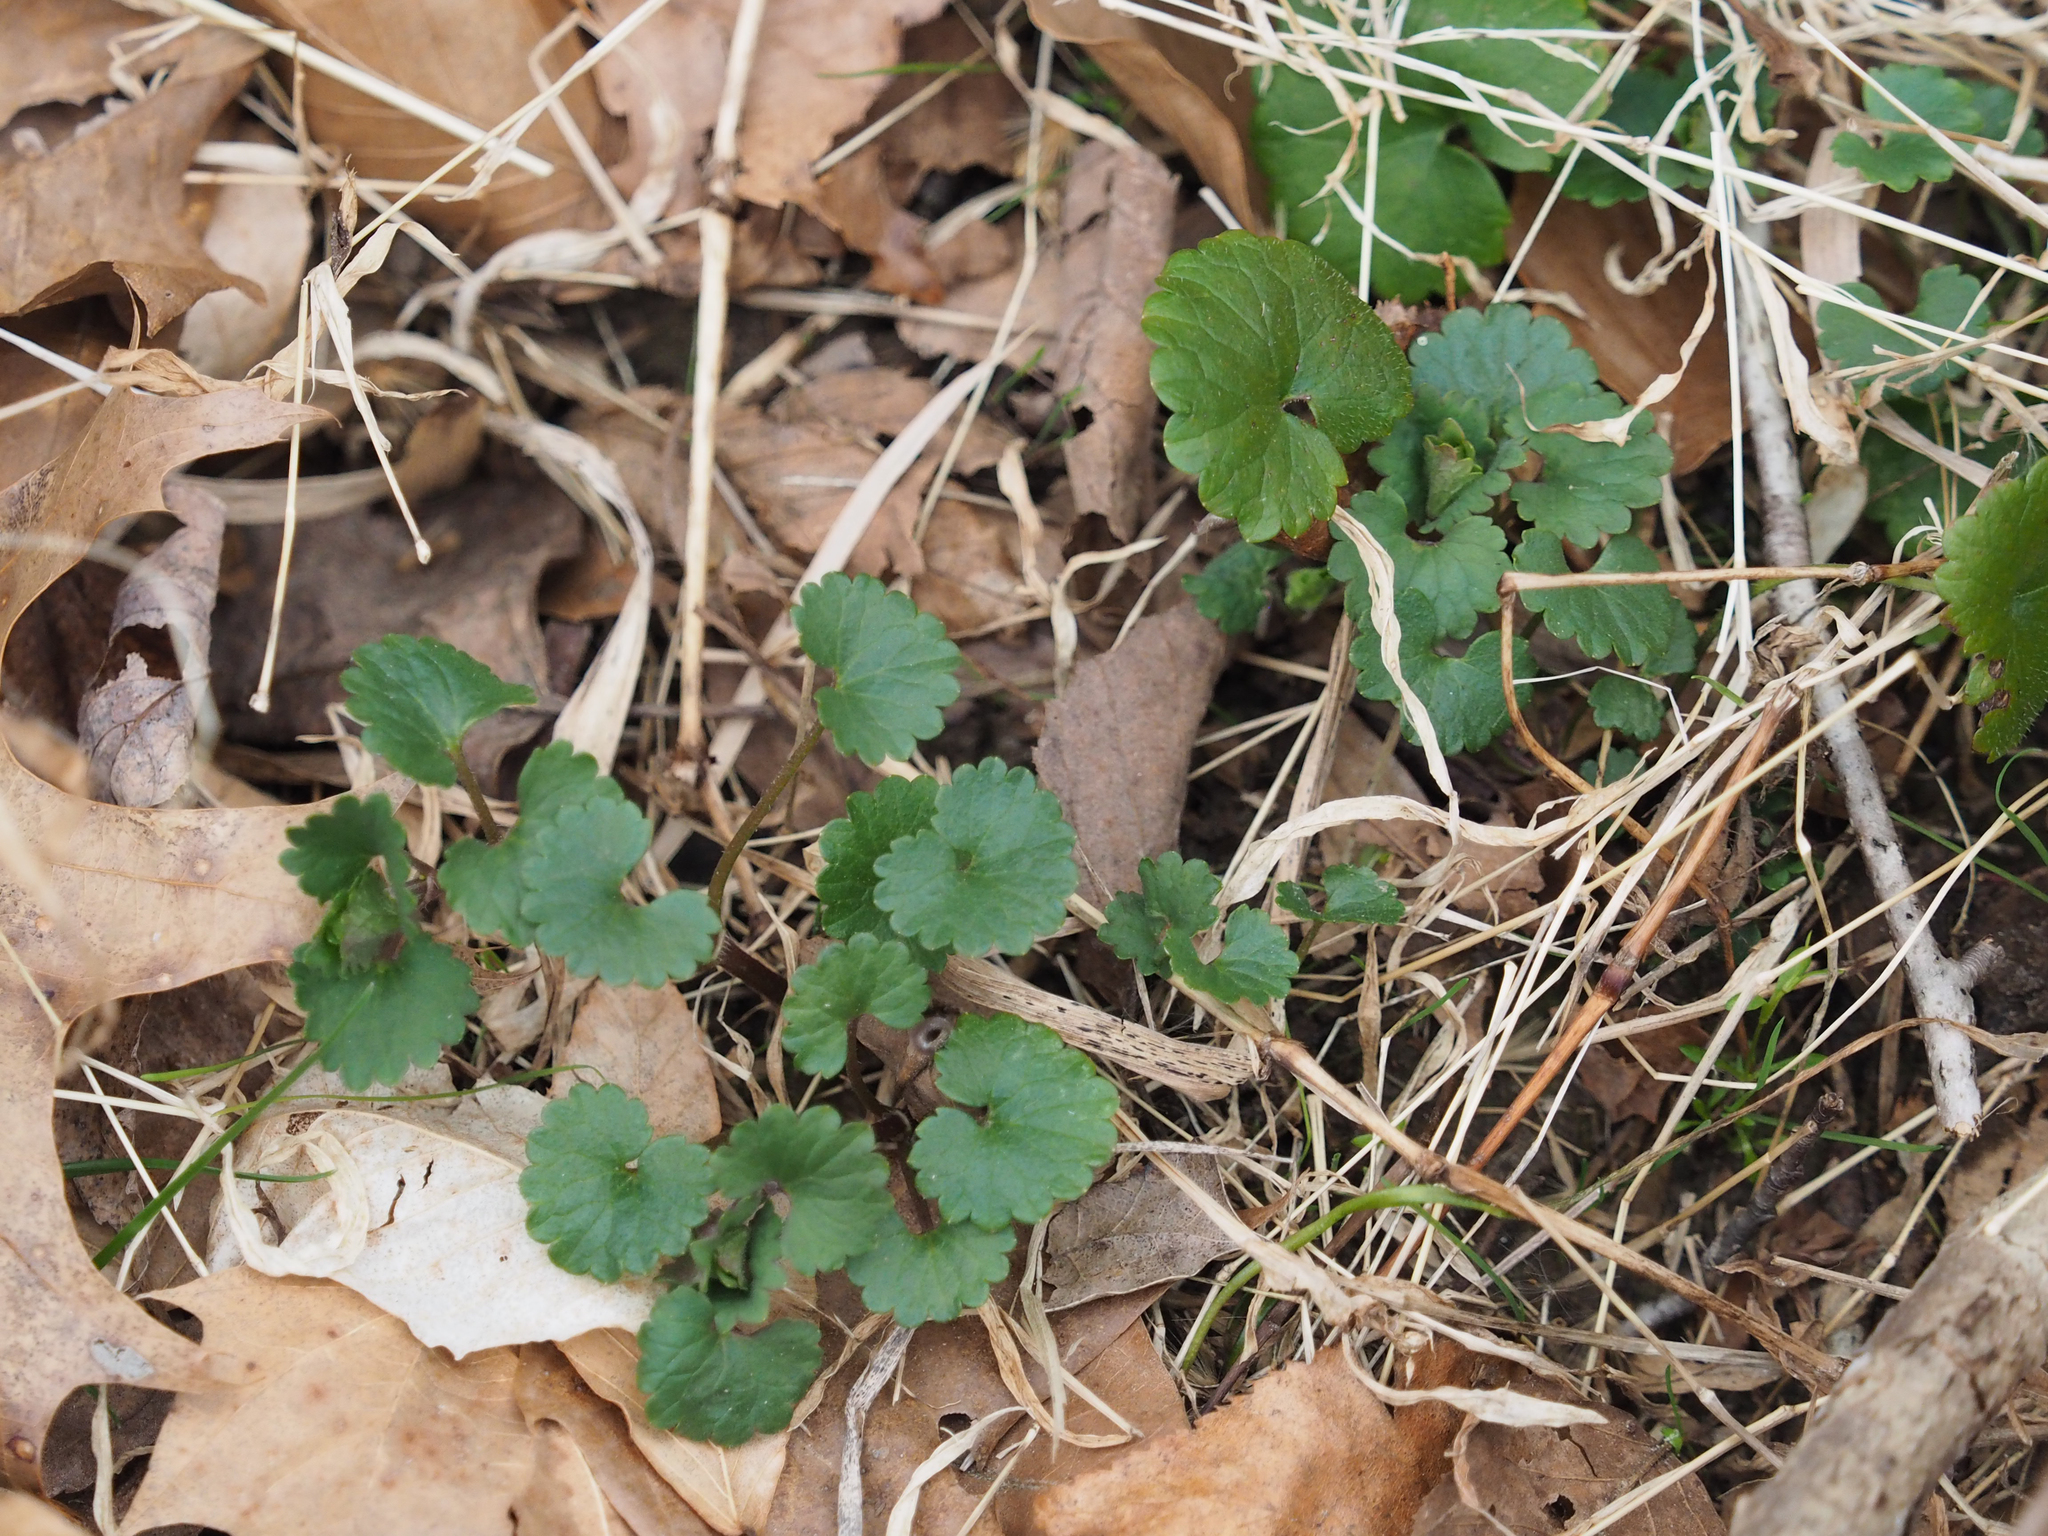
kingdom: Plantae
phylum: Tracheophyta
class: Magnoliopsida
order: Lamiales
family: Lamiaceae
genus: Glechoma
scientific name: Glechoma hederacea
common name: Ground ivy
